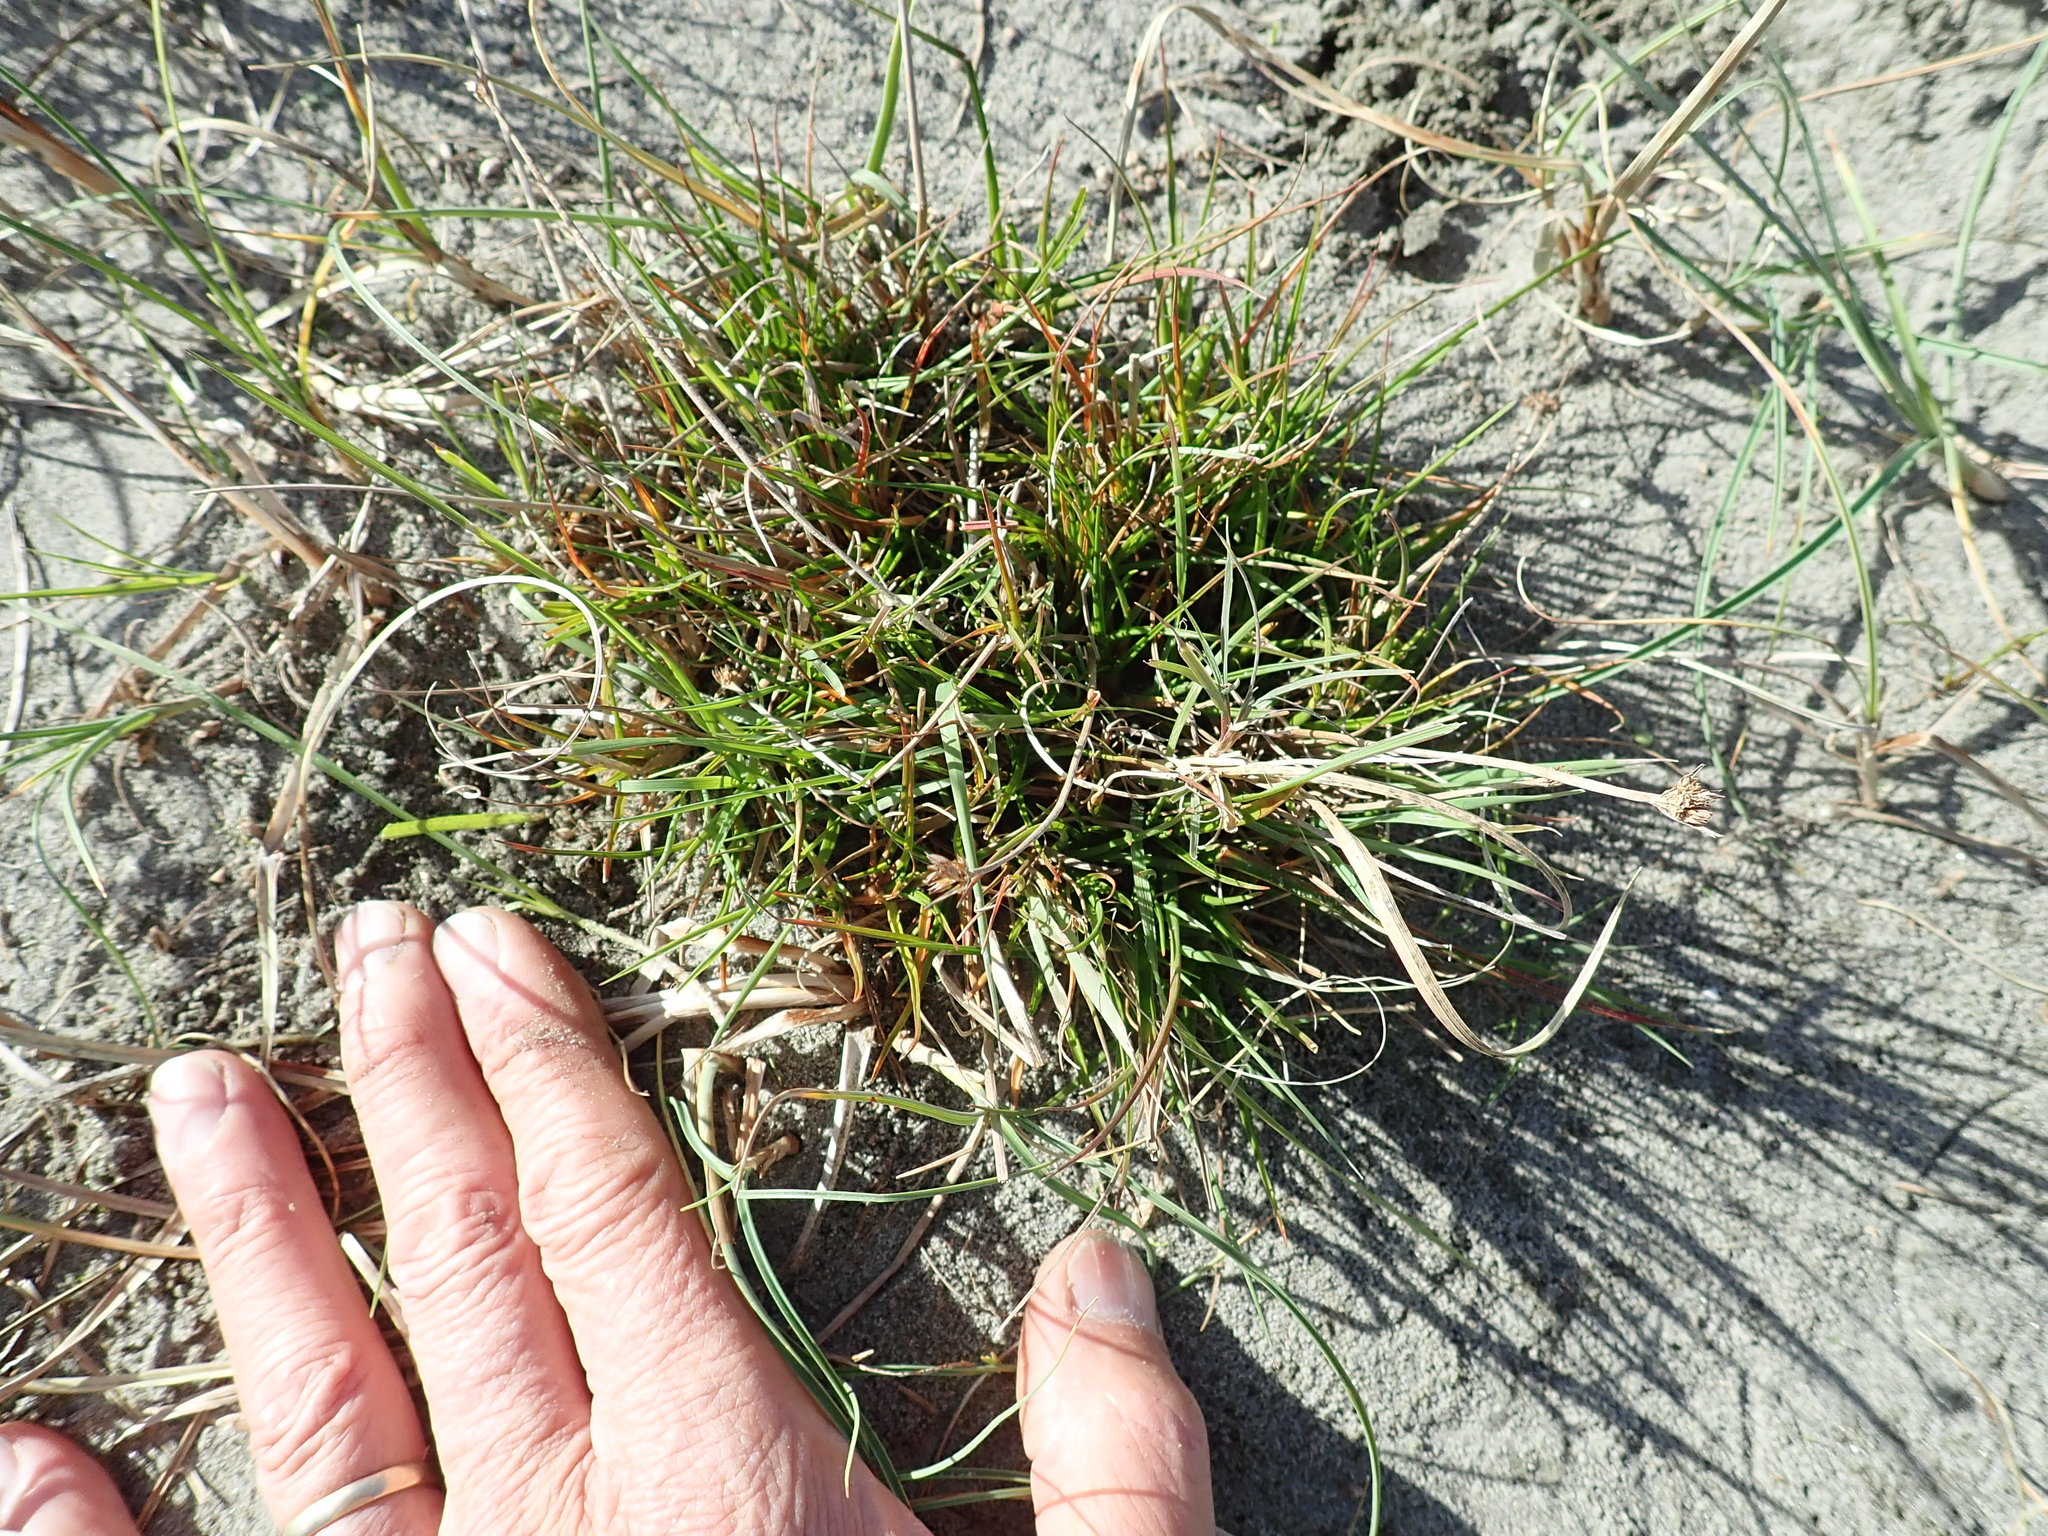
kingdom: Plantae
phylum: Tracheophyta
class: Liliopsida
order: Poales
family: Juncaceae
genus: Juncus
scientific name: Juncus caespiticius
